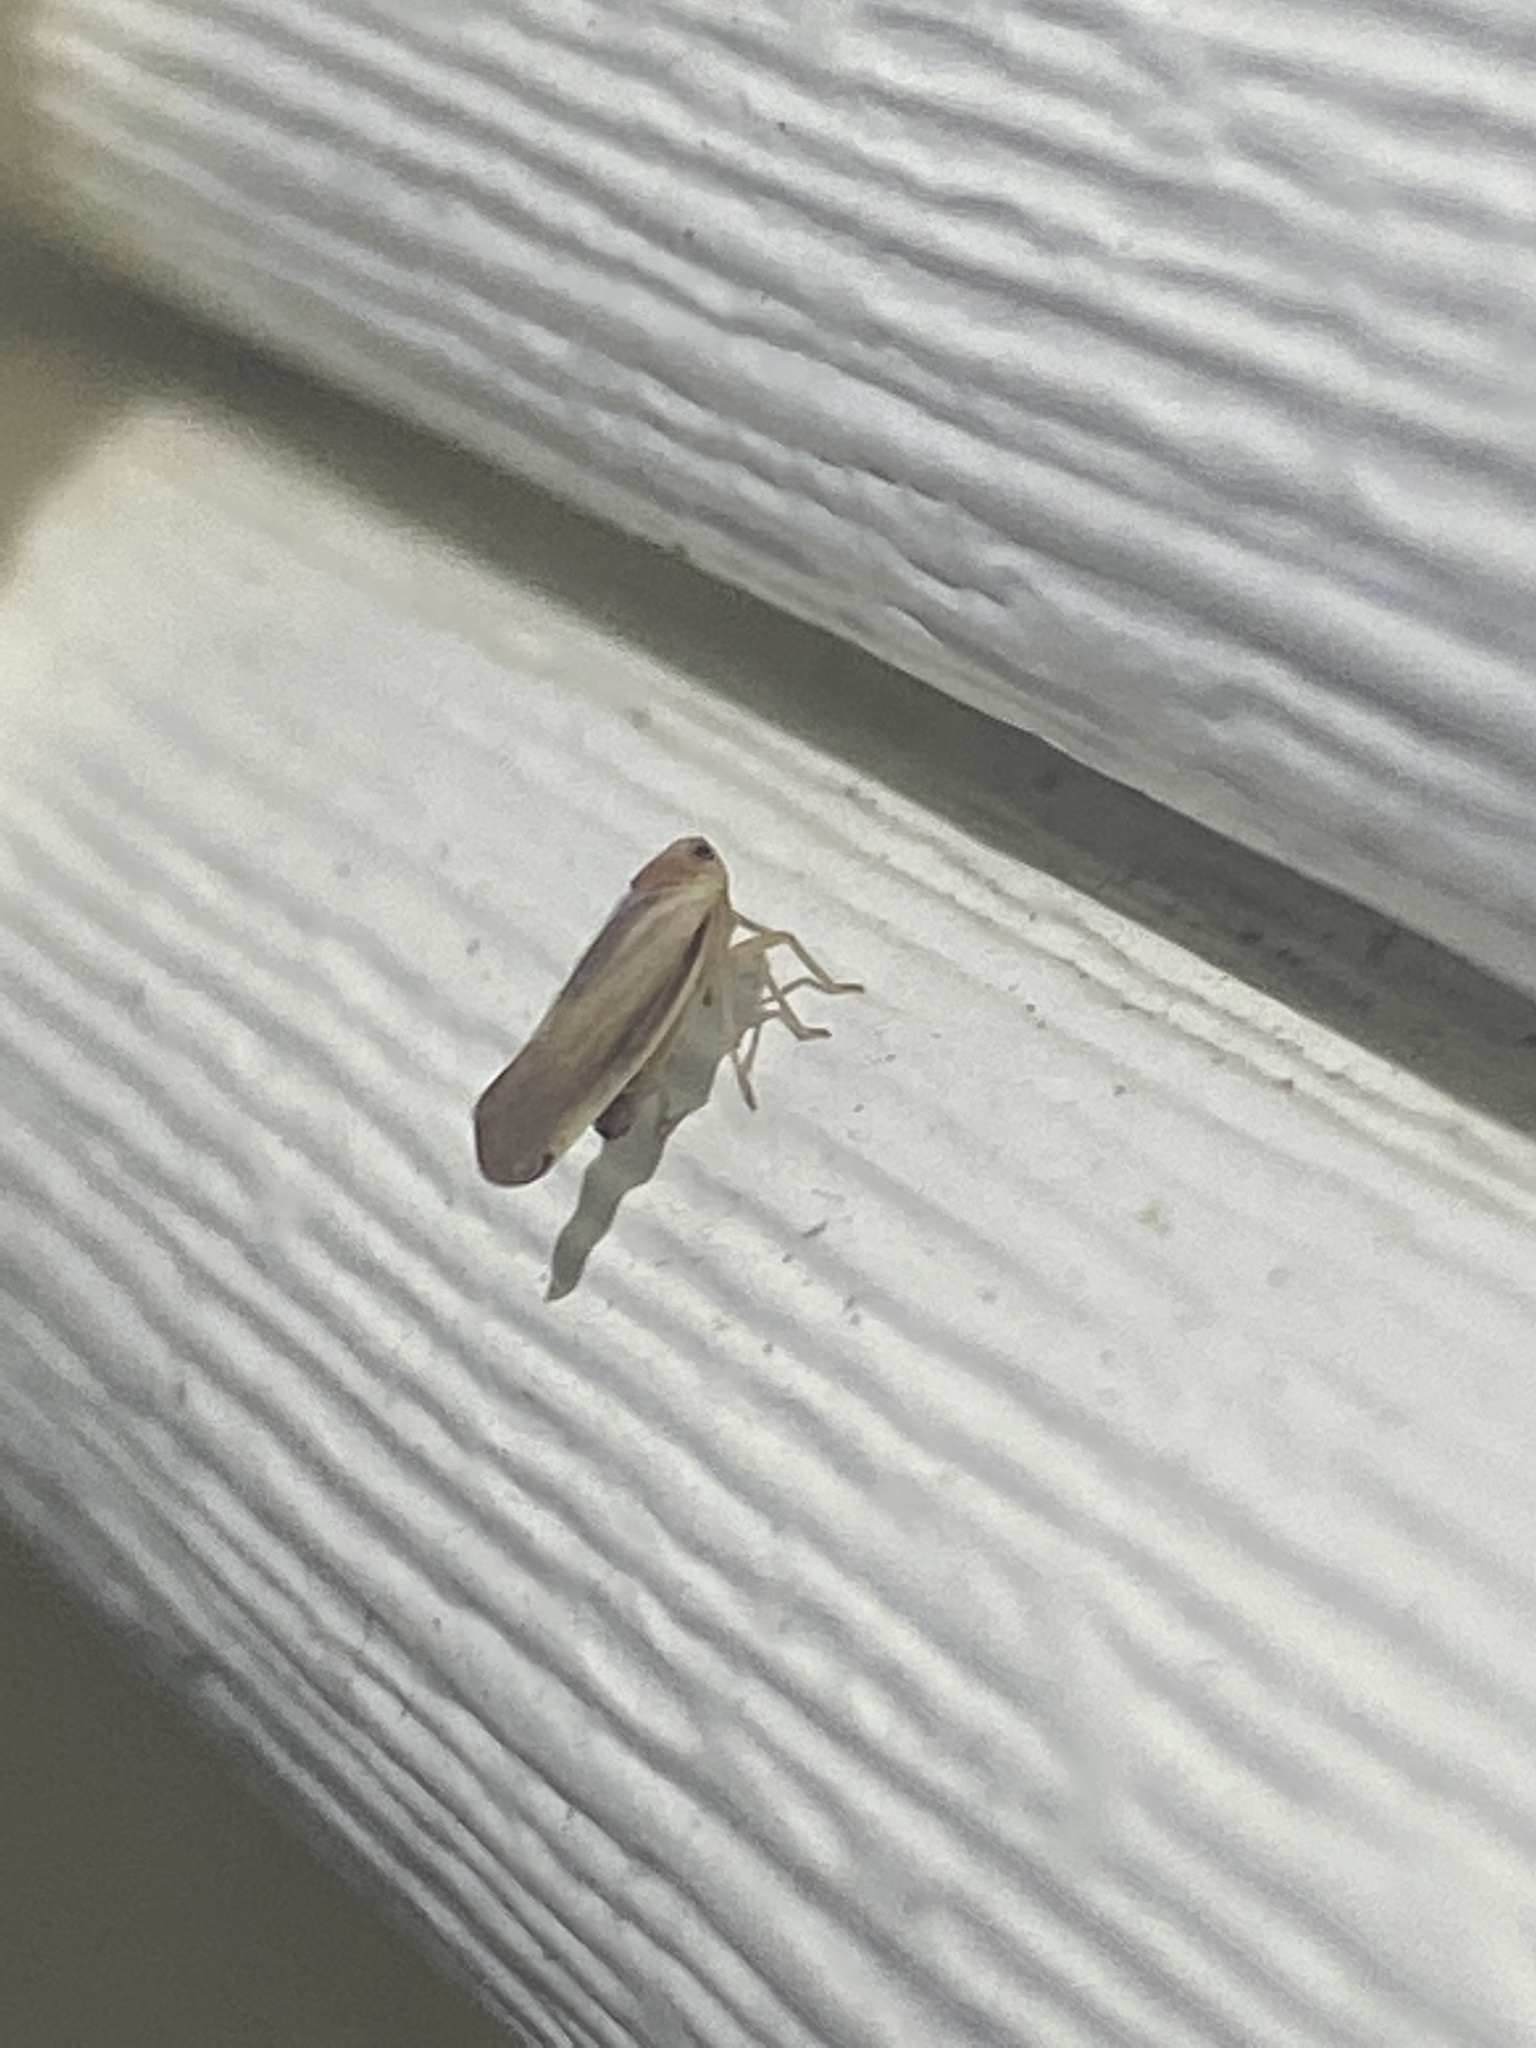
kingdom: Animalia
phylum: Arthropoda
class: Insecta
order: Hemiptera
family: Derbidae
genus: Omolicna
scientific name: Omolicna uhleri
